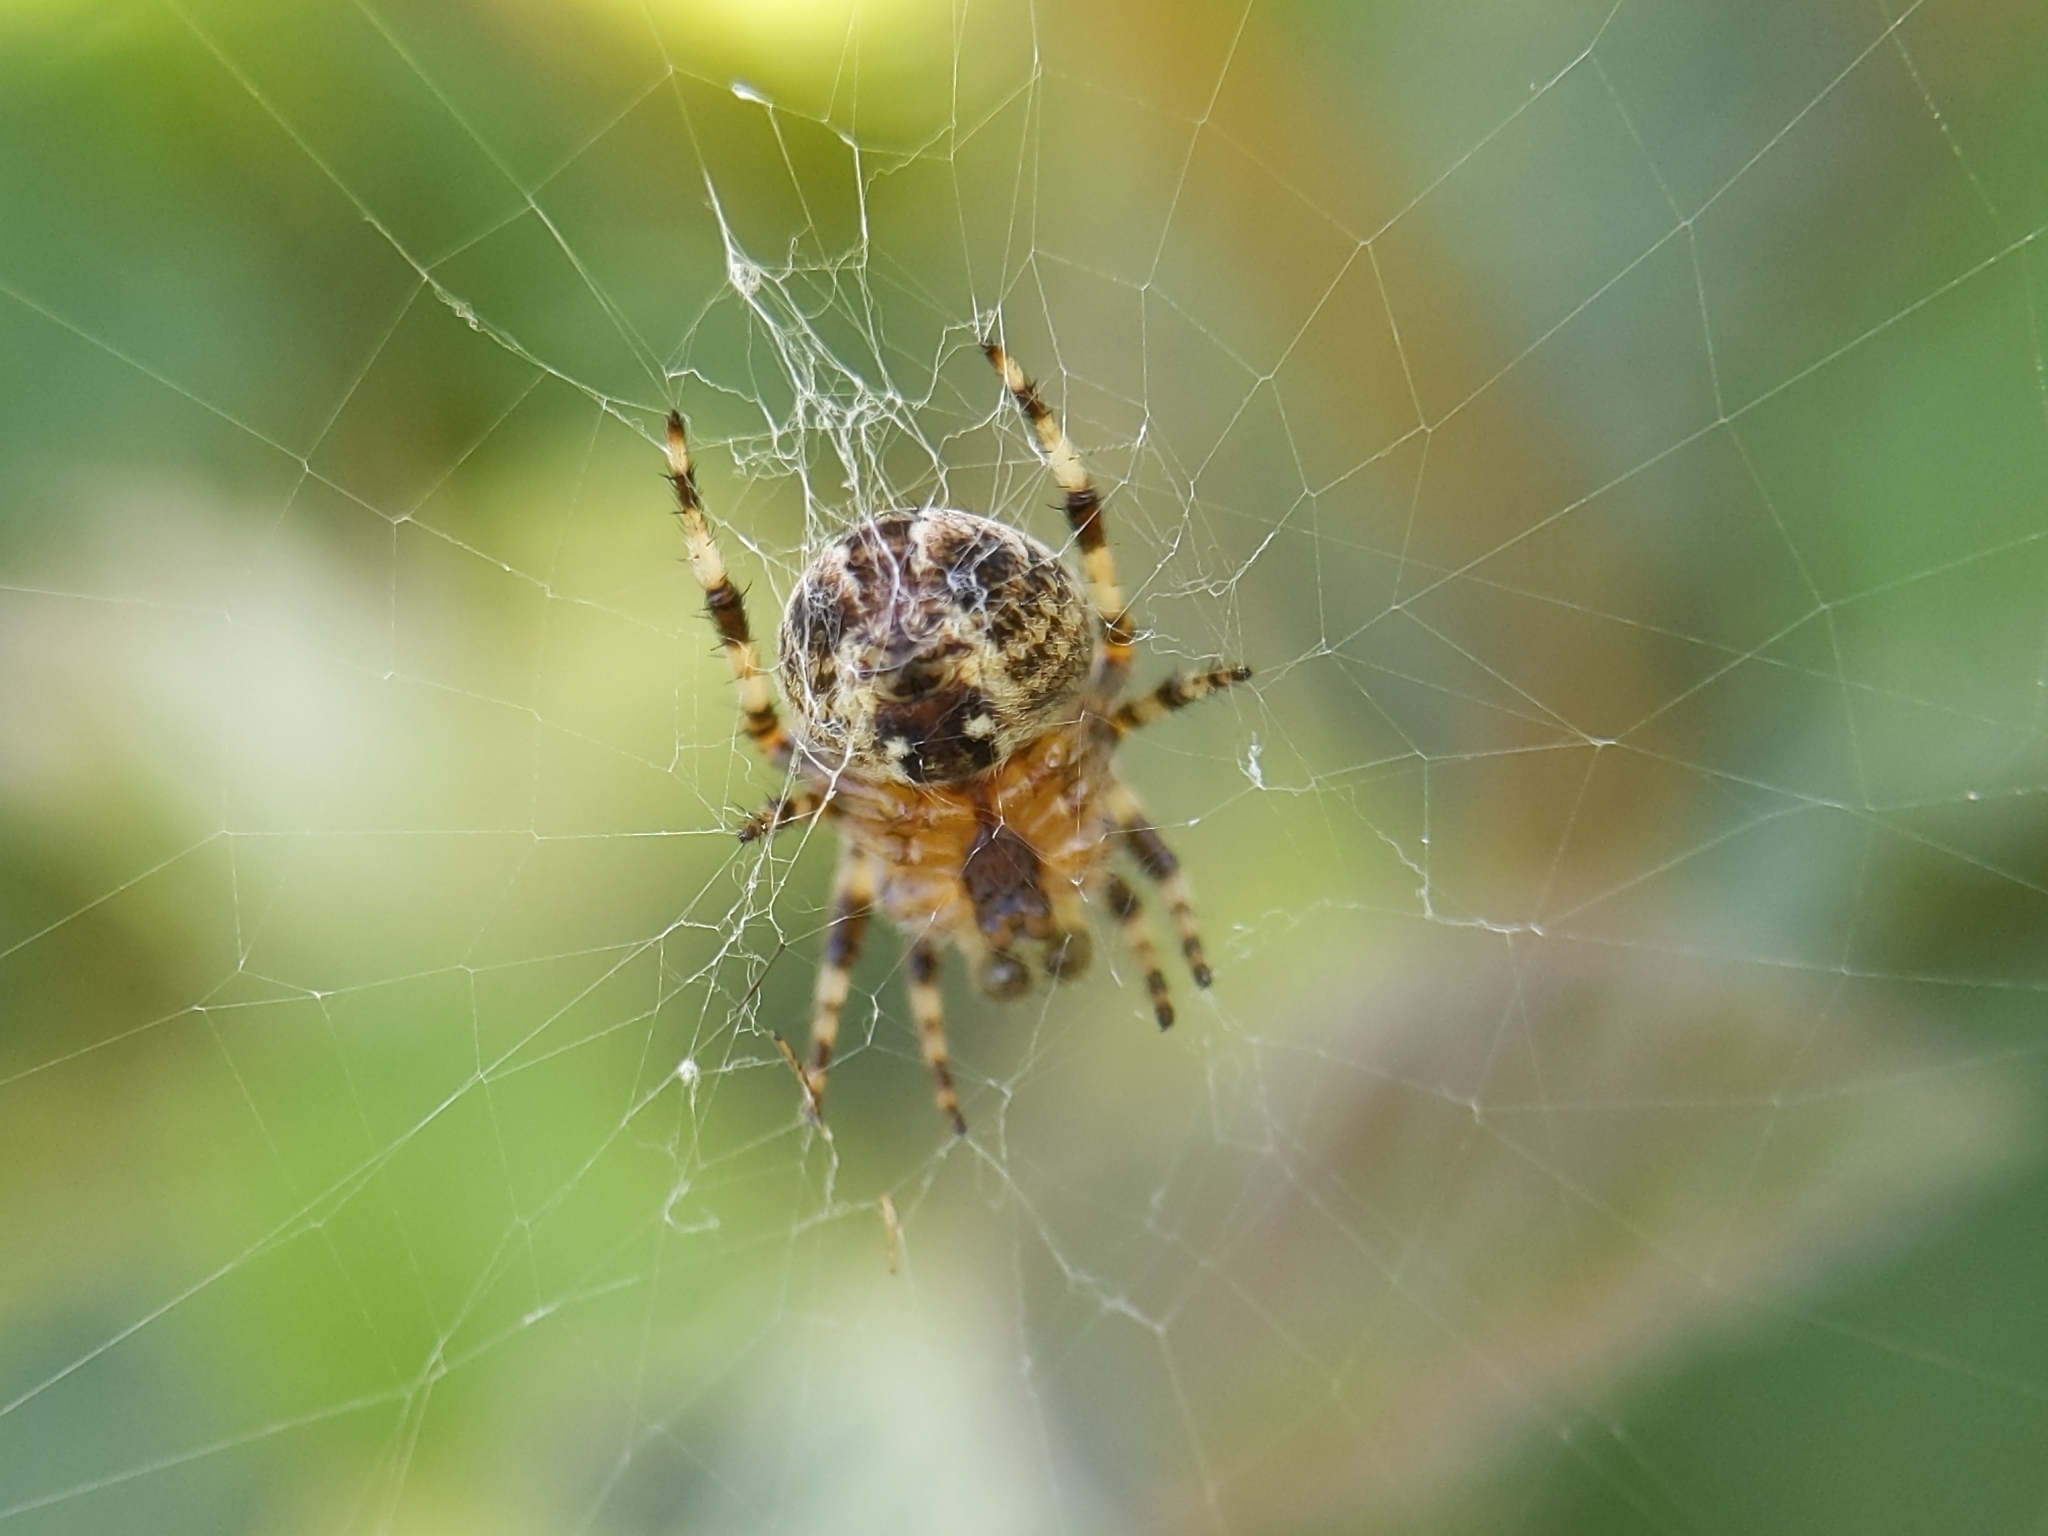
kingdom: Animalia
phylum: Arthropoda
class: Arachnida
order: Araneae
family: Araneidae
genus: Araneus
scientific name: Araneus diadematus
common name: Cross orbweaver
